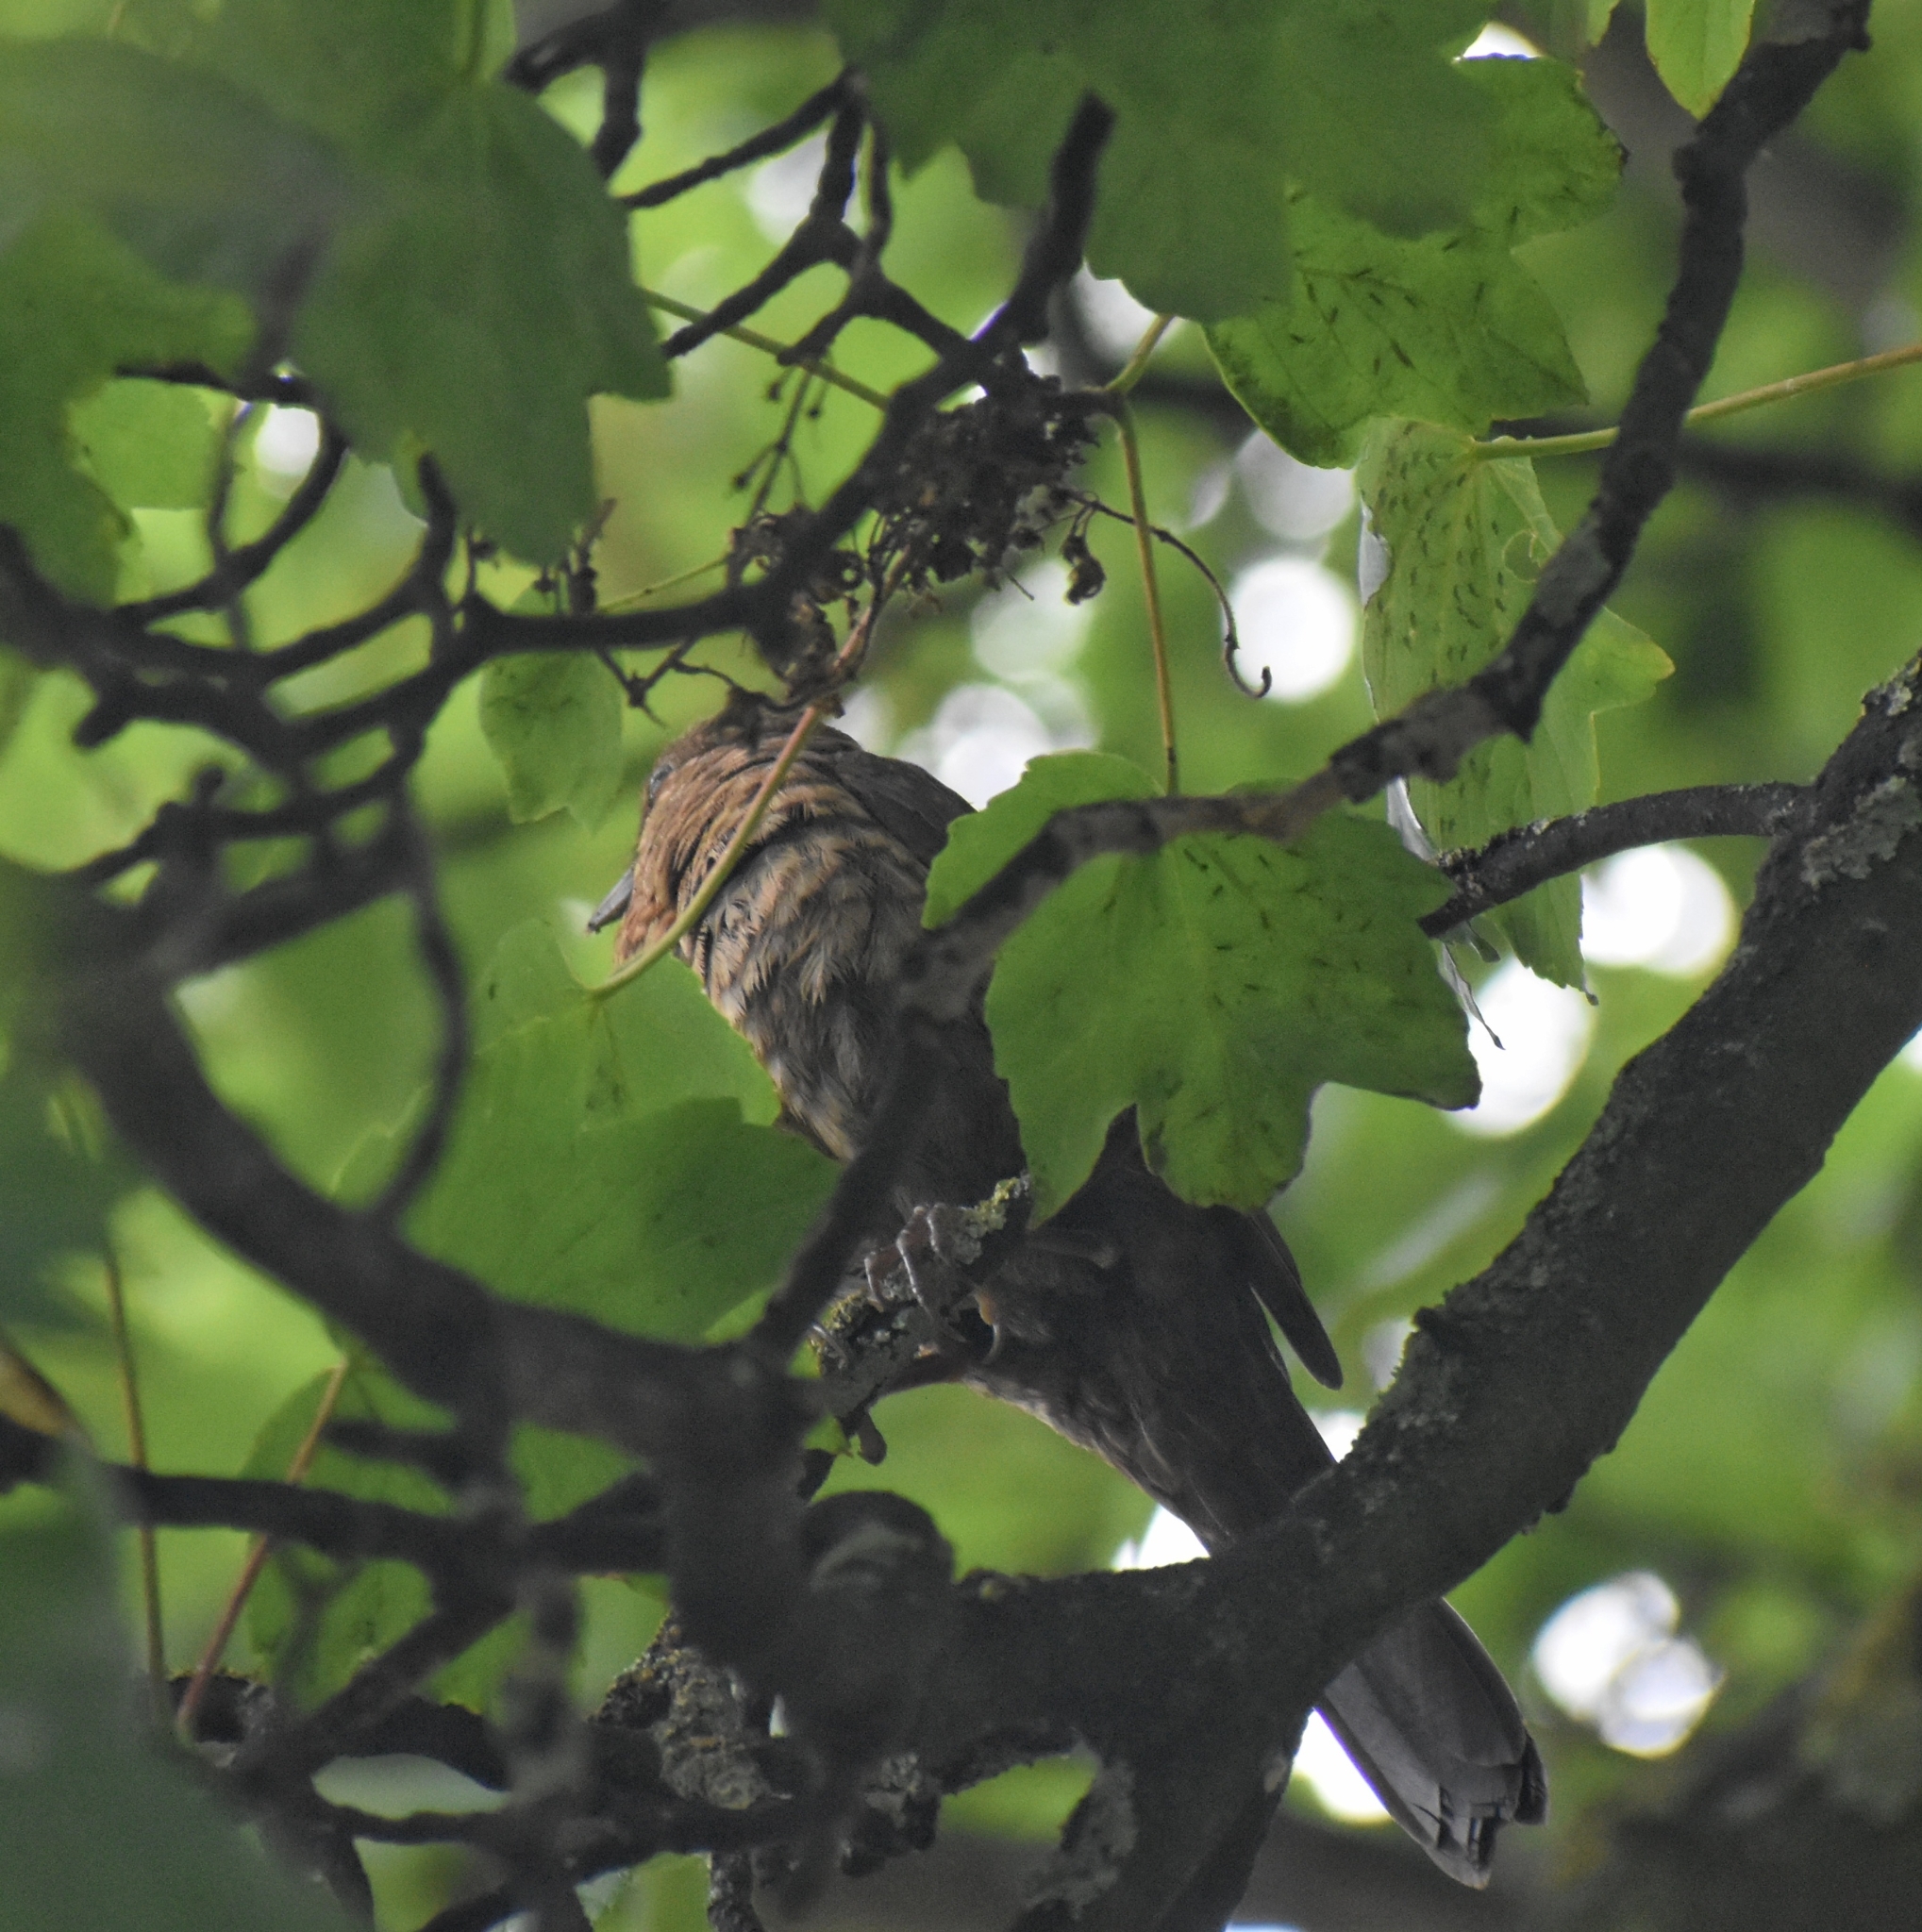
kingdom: Animalia
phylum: Chordata
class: Aves
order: Passeriformes
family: Turdidae
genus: Turdus
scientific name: Turdus merula
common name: Common blackbird
